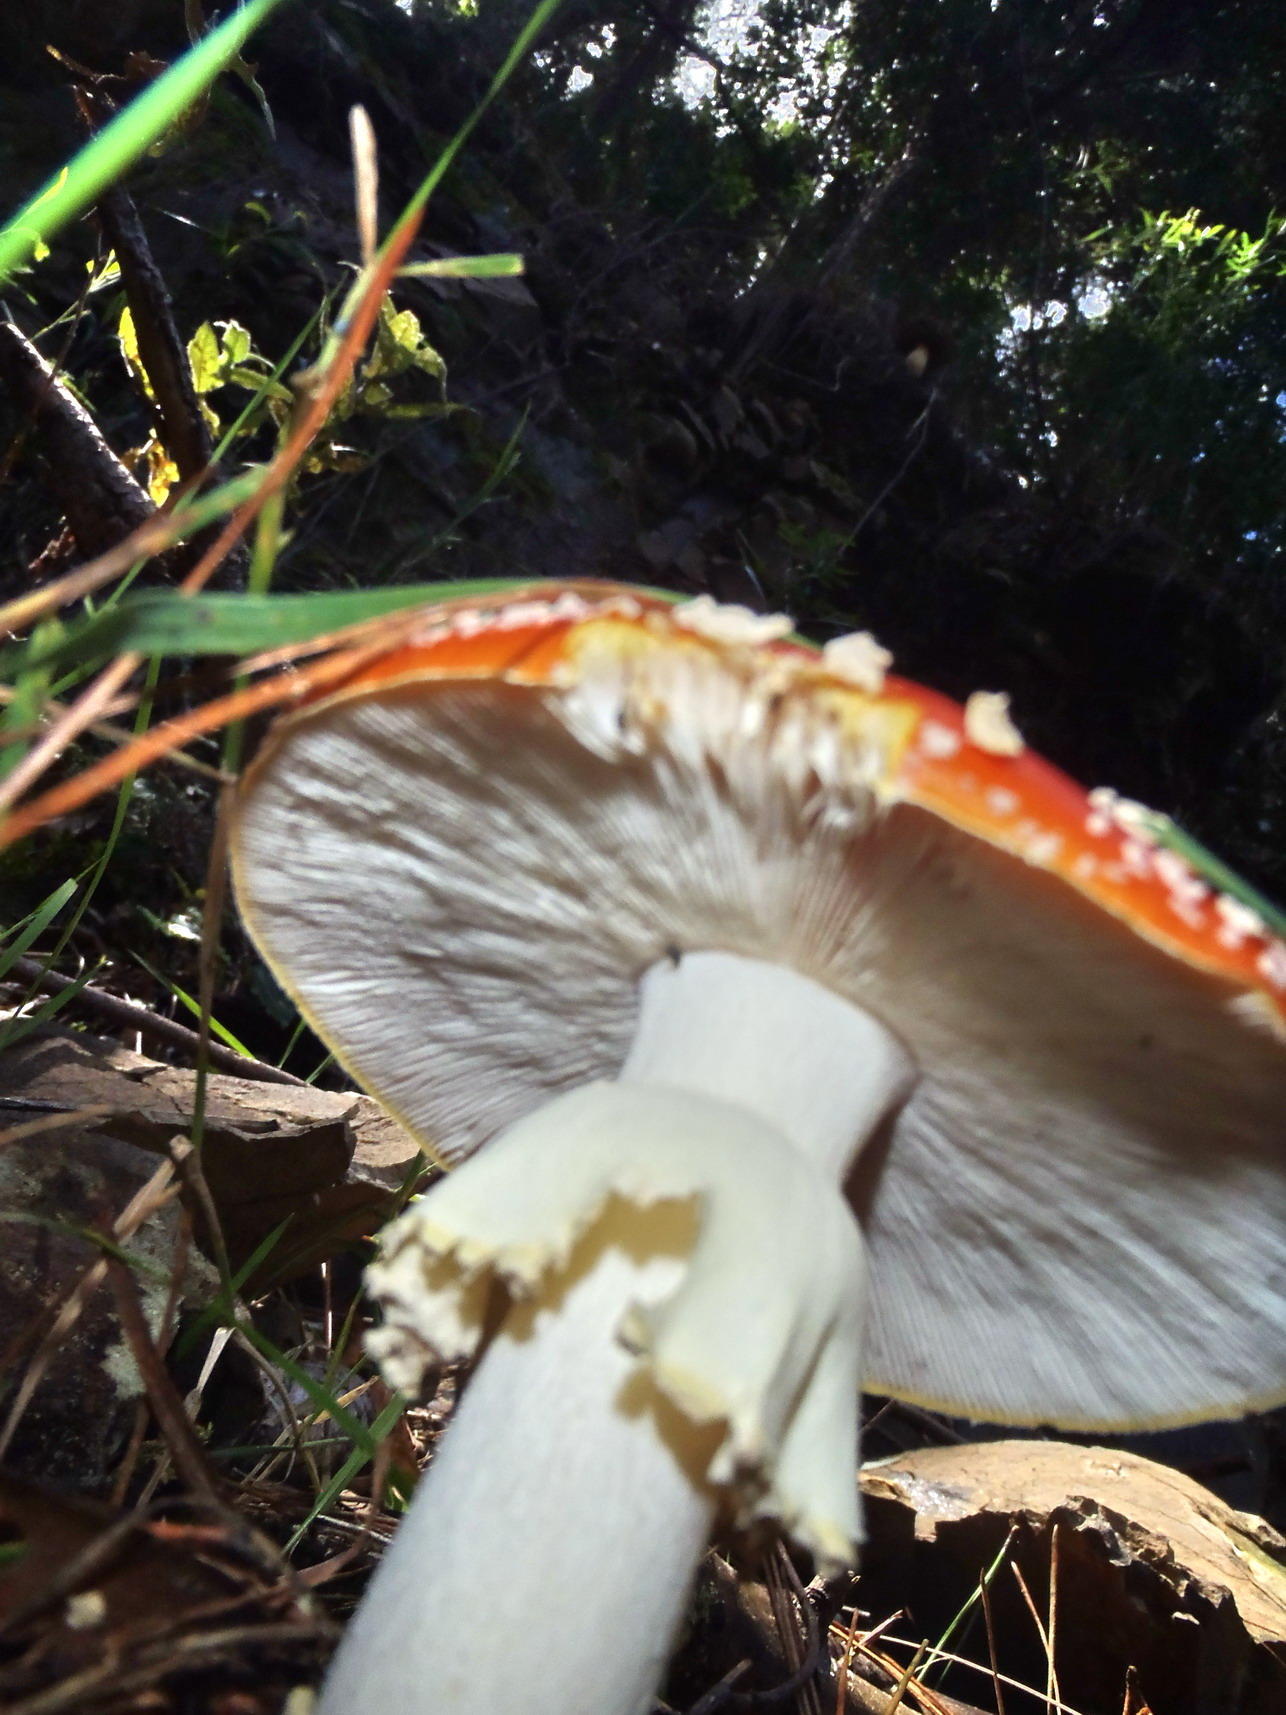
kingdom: Fungi
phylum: Basidiomycota
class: Agaricomycetes
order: Agaricales
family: Amanitaceae
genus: Amanita
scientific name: Amanita muscaria
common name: Fly agaric
